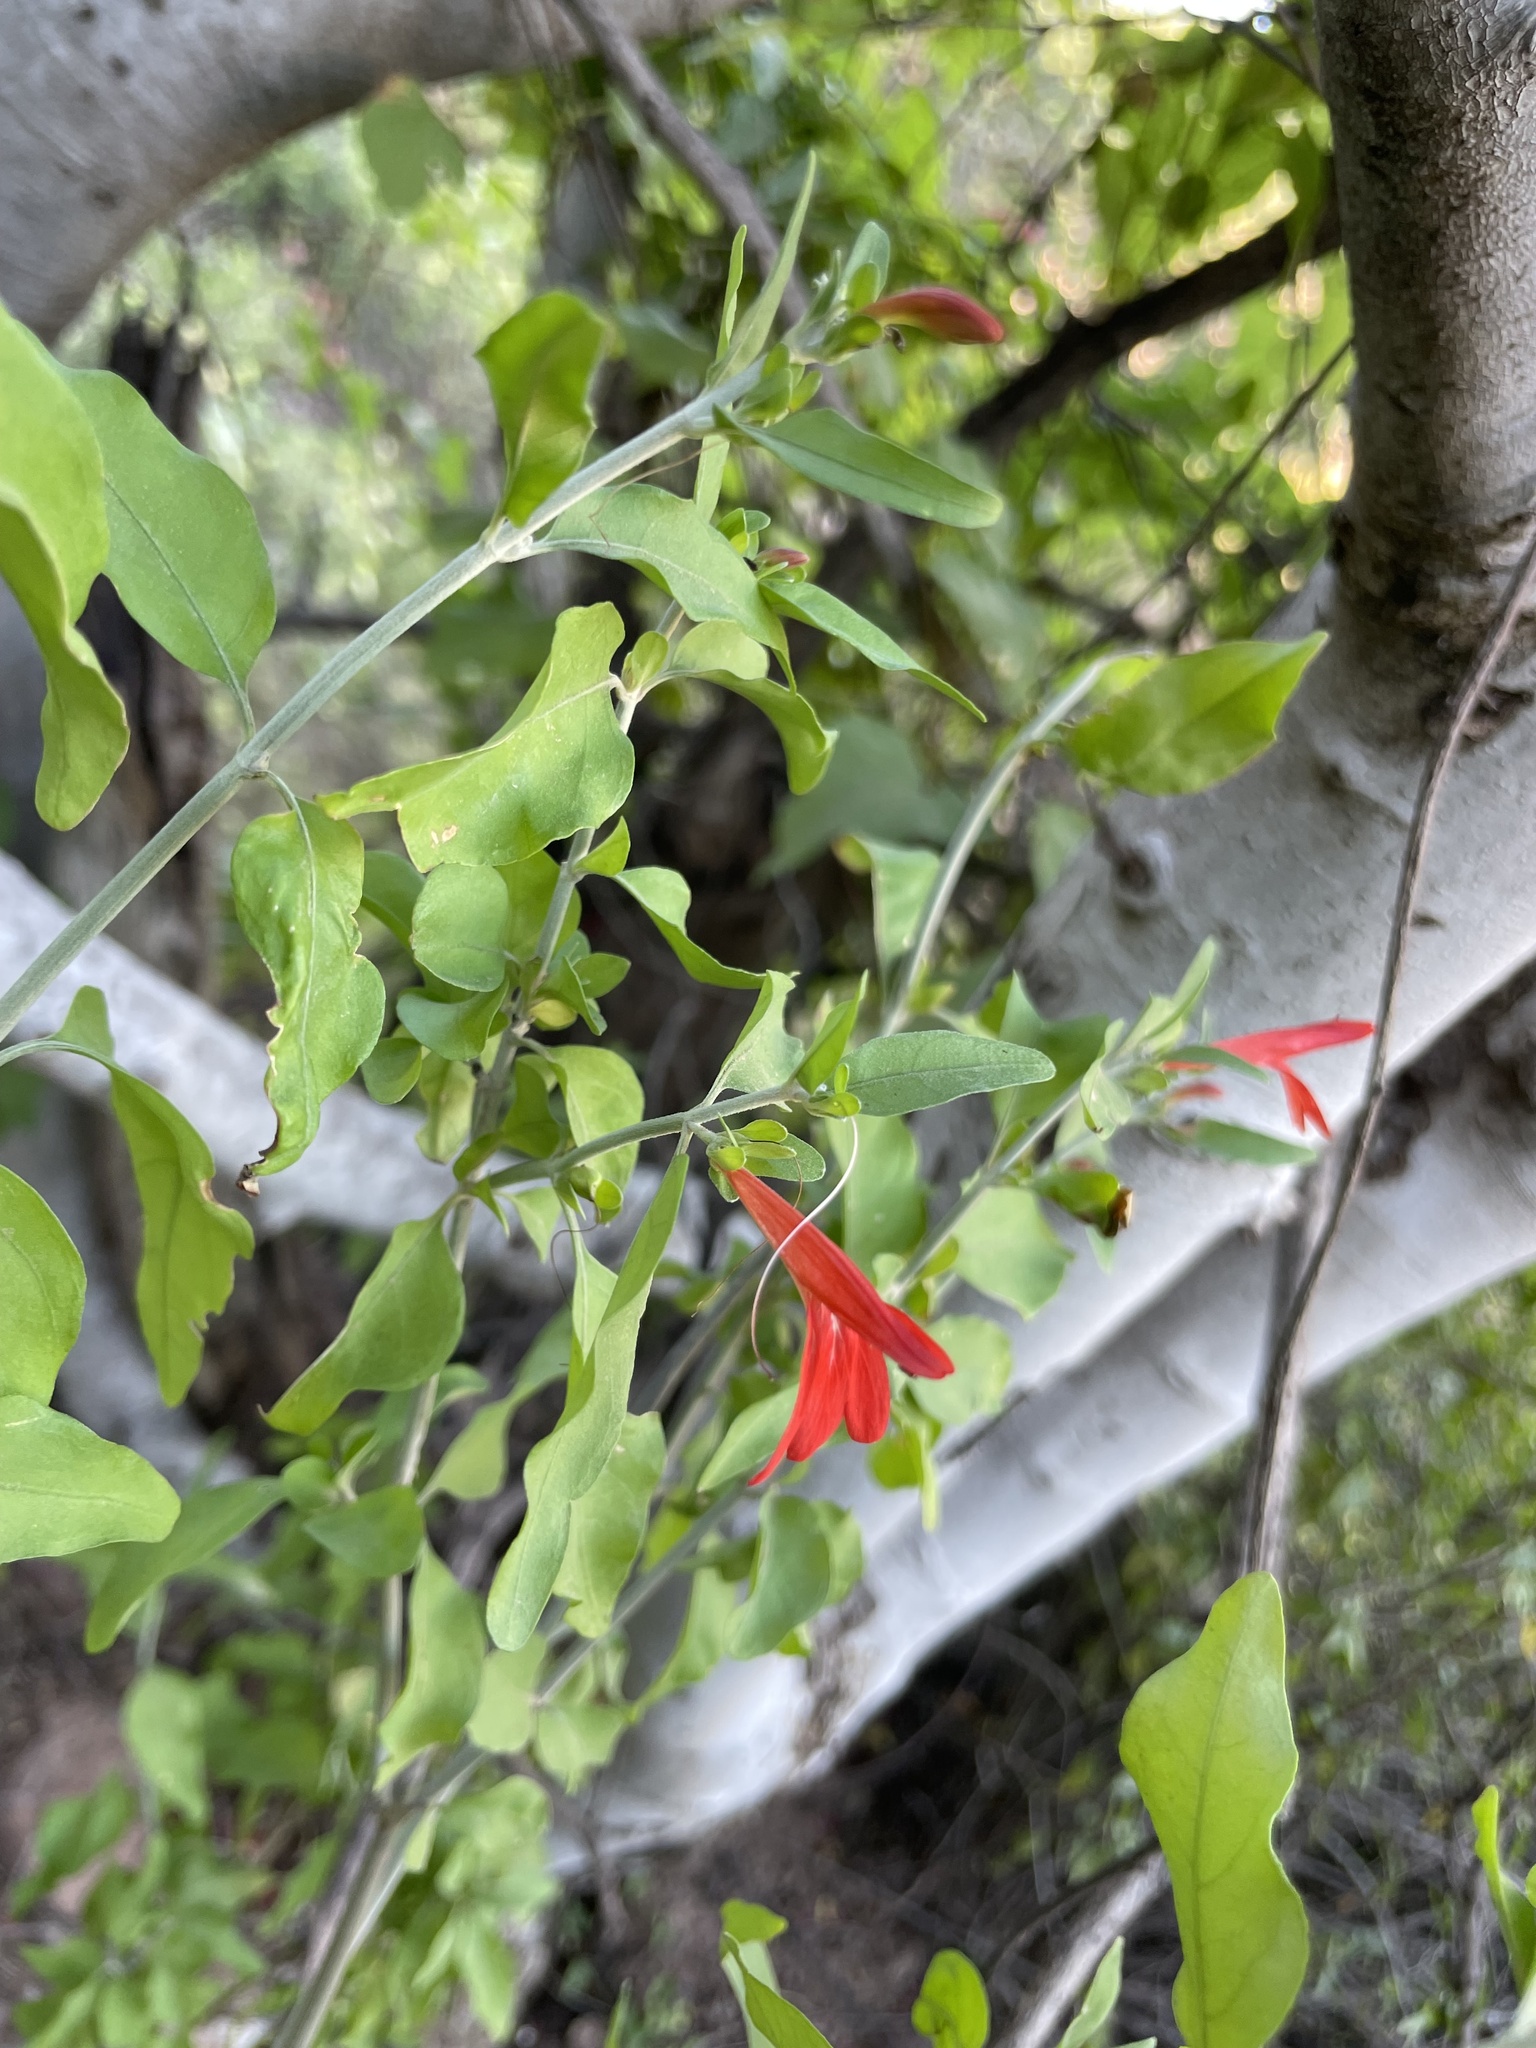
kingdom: Plantae
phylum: Tracheophyta
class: Magnoliopsida
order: Lamiales
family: Acanthaceae
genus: Justicia
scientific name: Justicia palmeri
